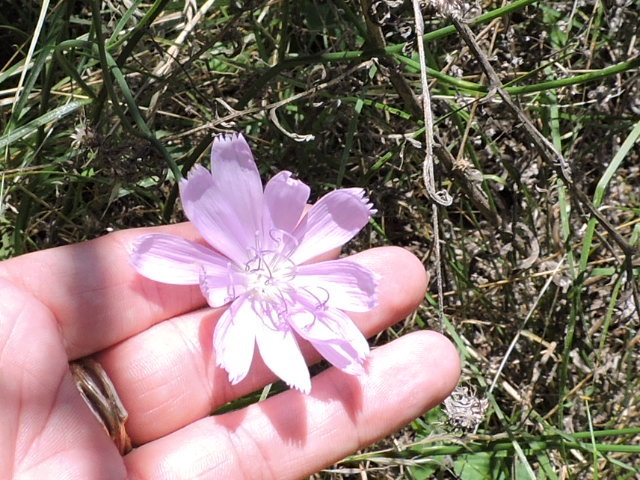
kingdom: Plantae
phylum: Tracheophyta
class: Magnoliopsida
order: Asterales
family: Asteraceae
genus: Lygodesmia
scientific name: Lygodesmia texana
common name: Texas skeleton-plant
